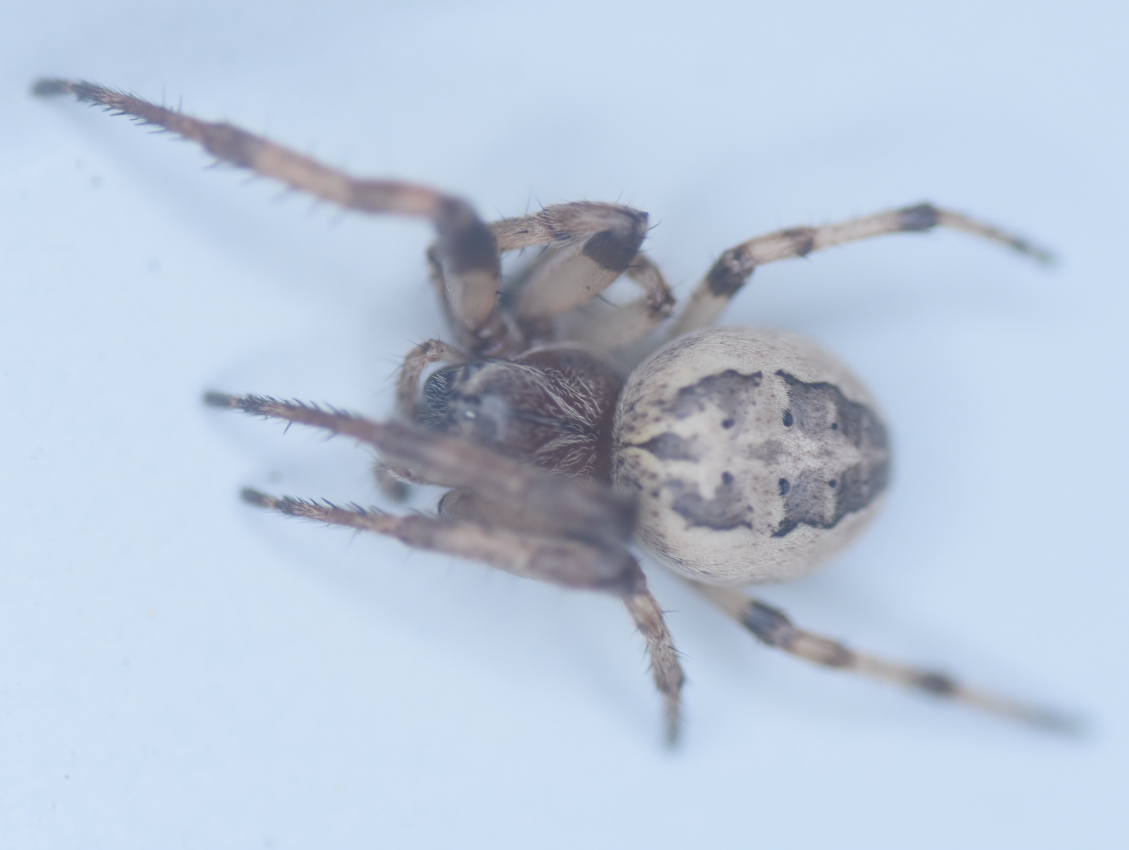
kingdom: Animalia
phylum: Arthropoda
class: Arachnida
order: Araneae
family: Araneidae
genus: Larinioides
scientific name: Larinioides cornutus
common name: Furrow orbweaver
